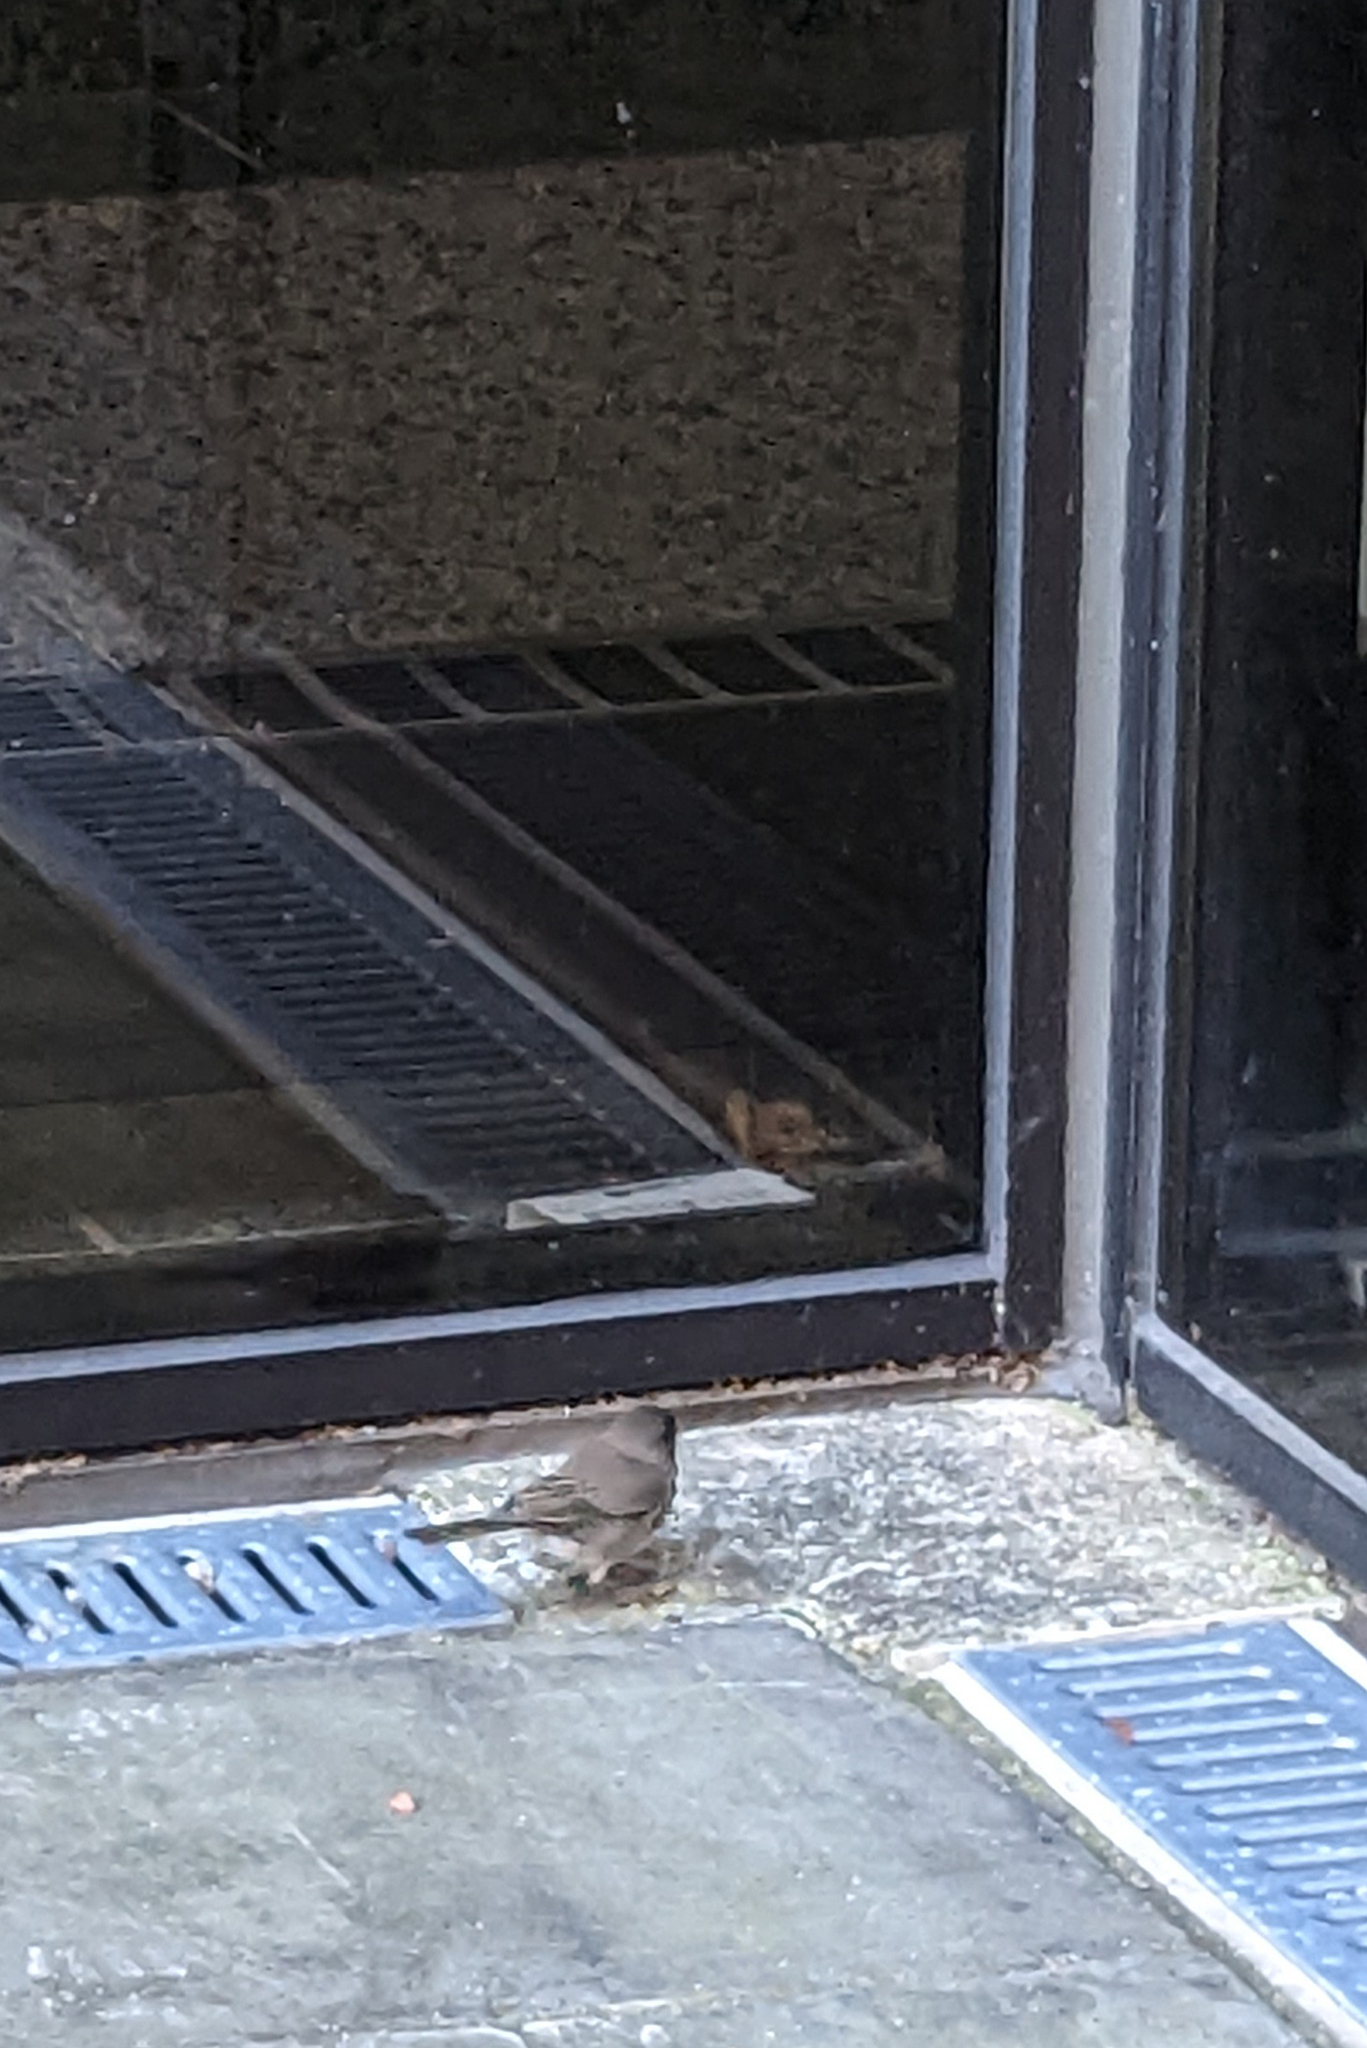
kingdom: Animalia
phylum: Chordata
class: Aves
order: Passeriformes
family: Passerellidae
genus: Junco
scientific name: Junco hyemalis
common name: Dark-eyed junco
